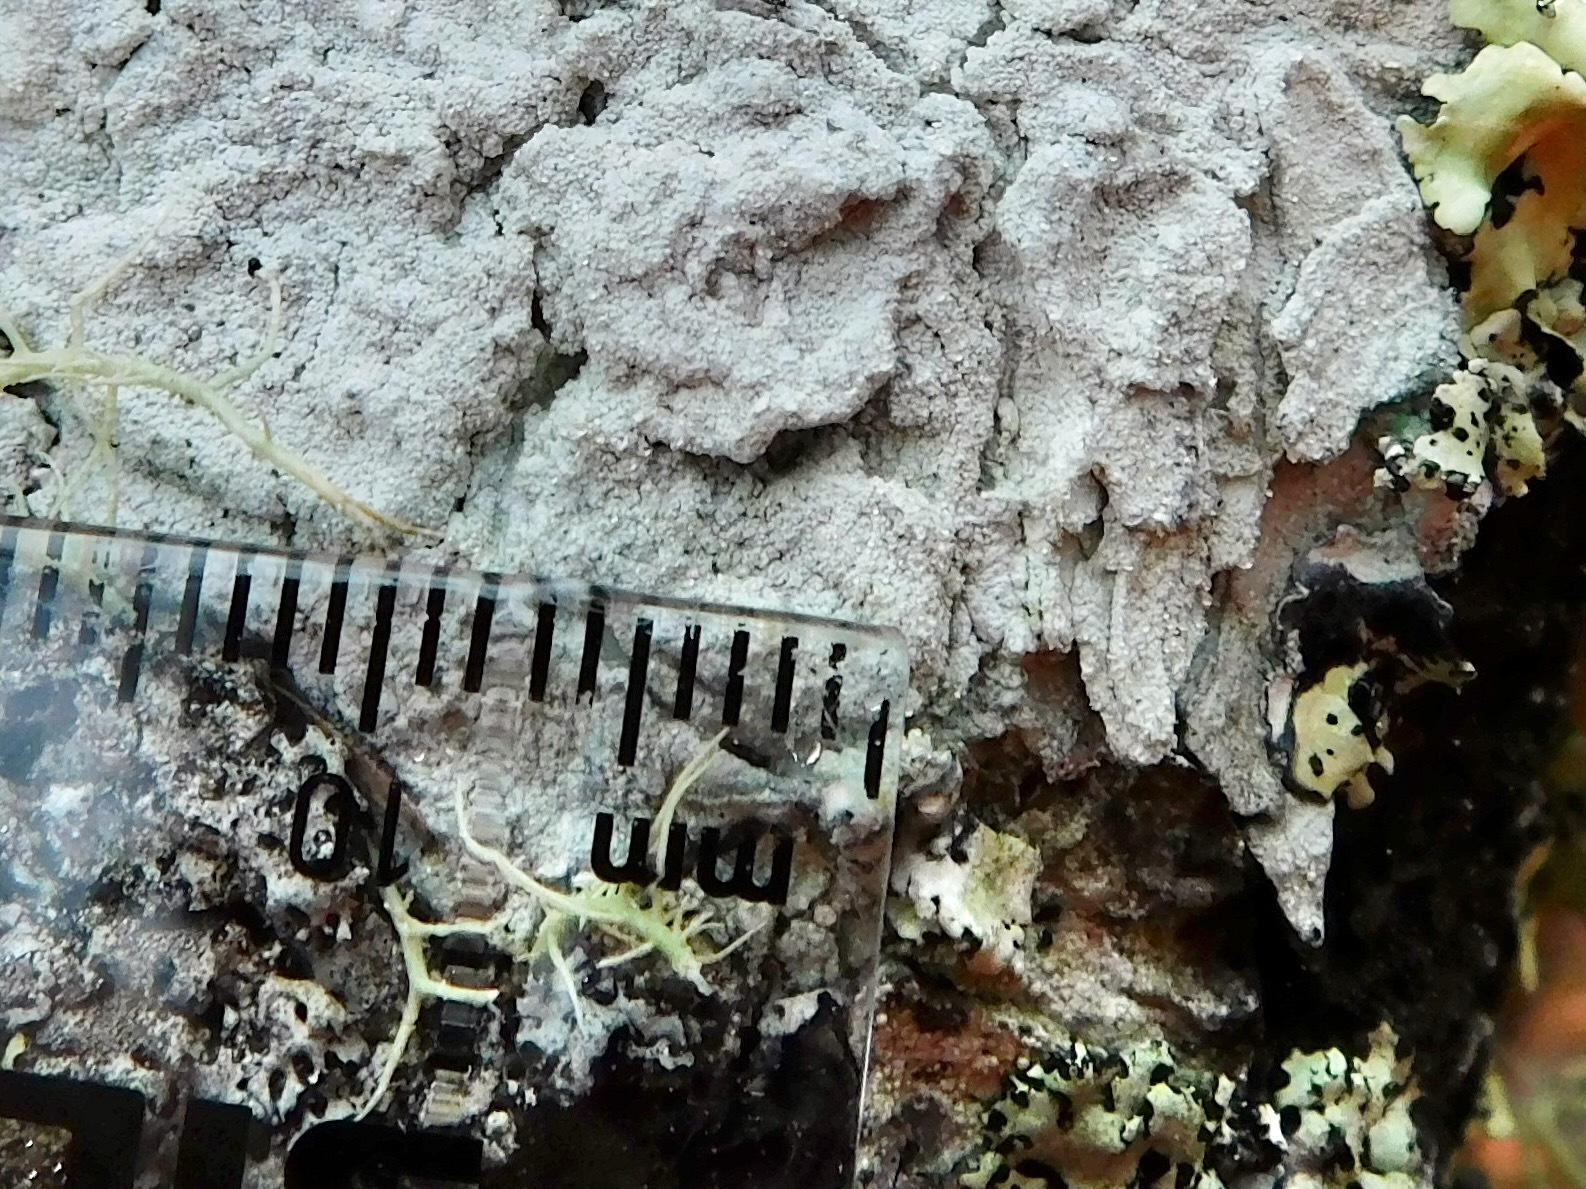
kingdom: Fungi
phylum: Ascomycota
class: Lecanoromycetes
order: Ostropales
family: Phlyctidaceae
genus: Phlyctis
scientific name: Phlyctis argena
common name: Whitewash lichen
